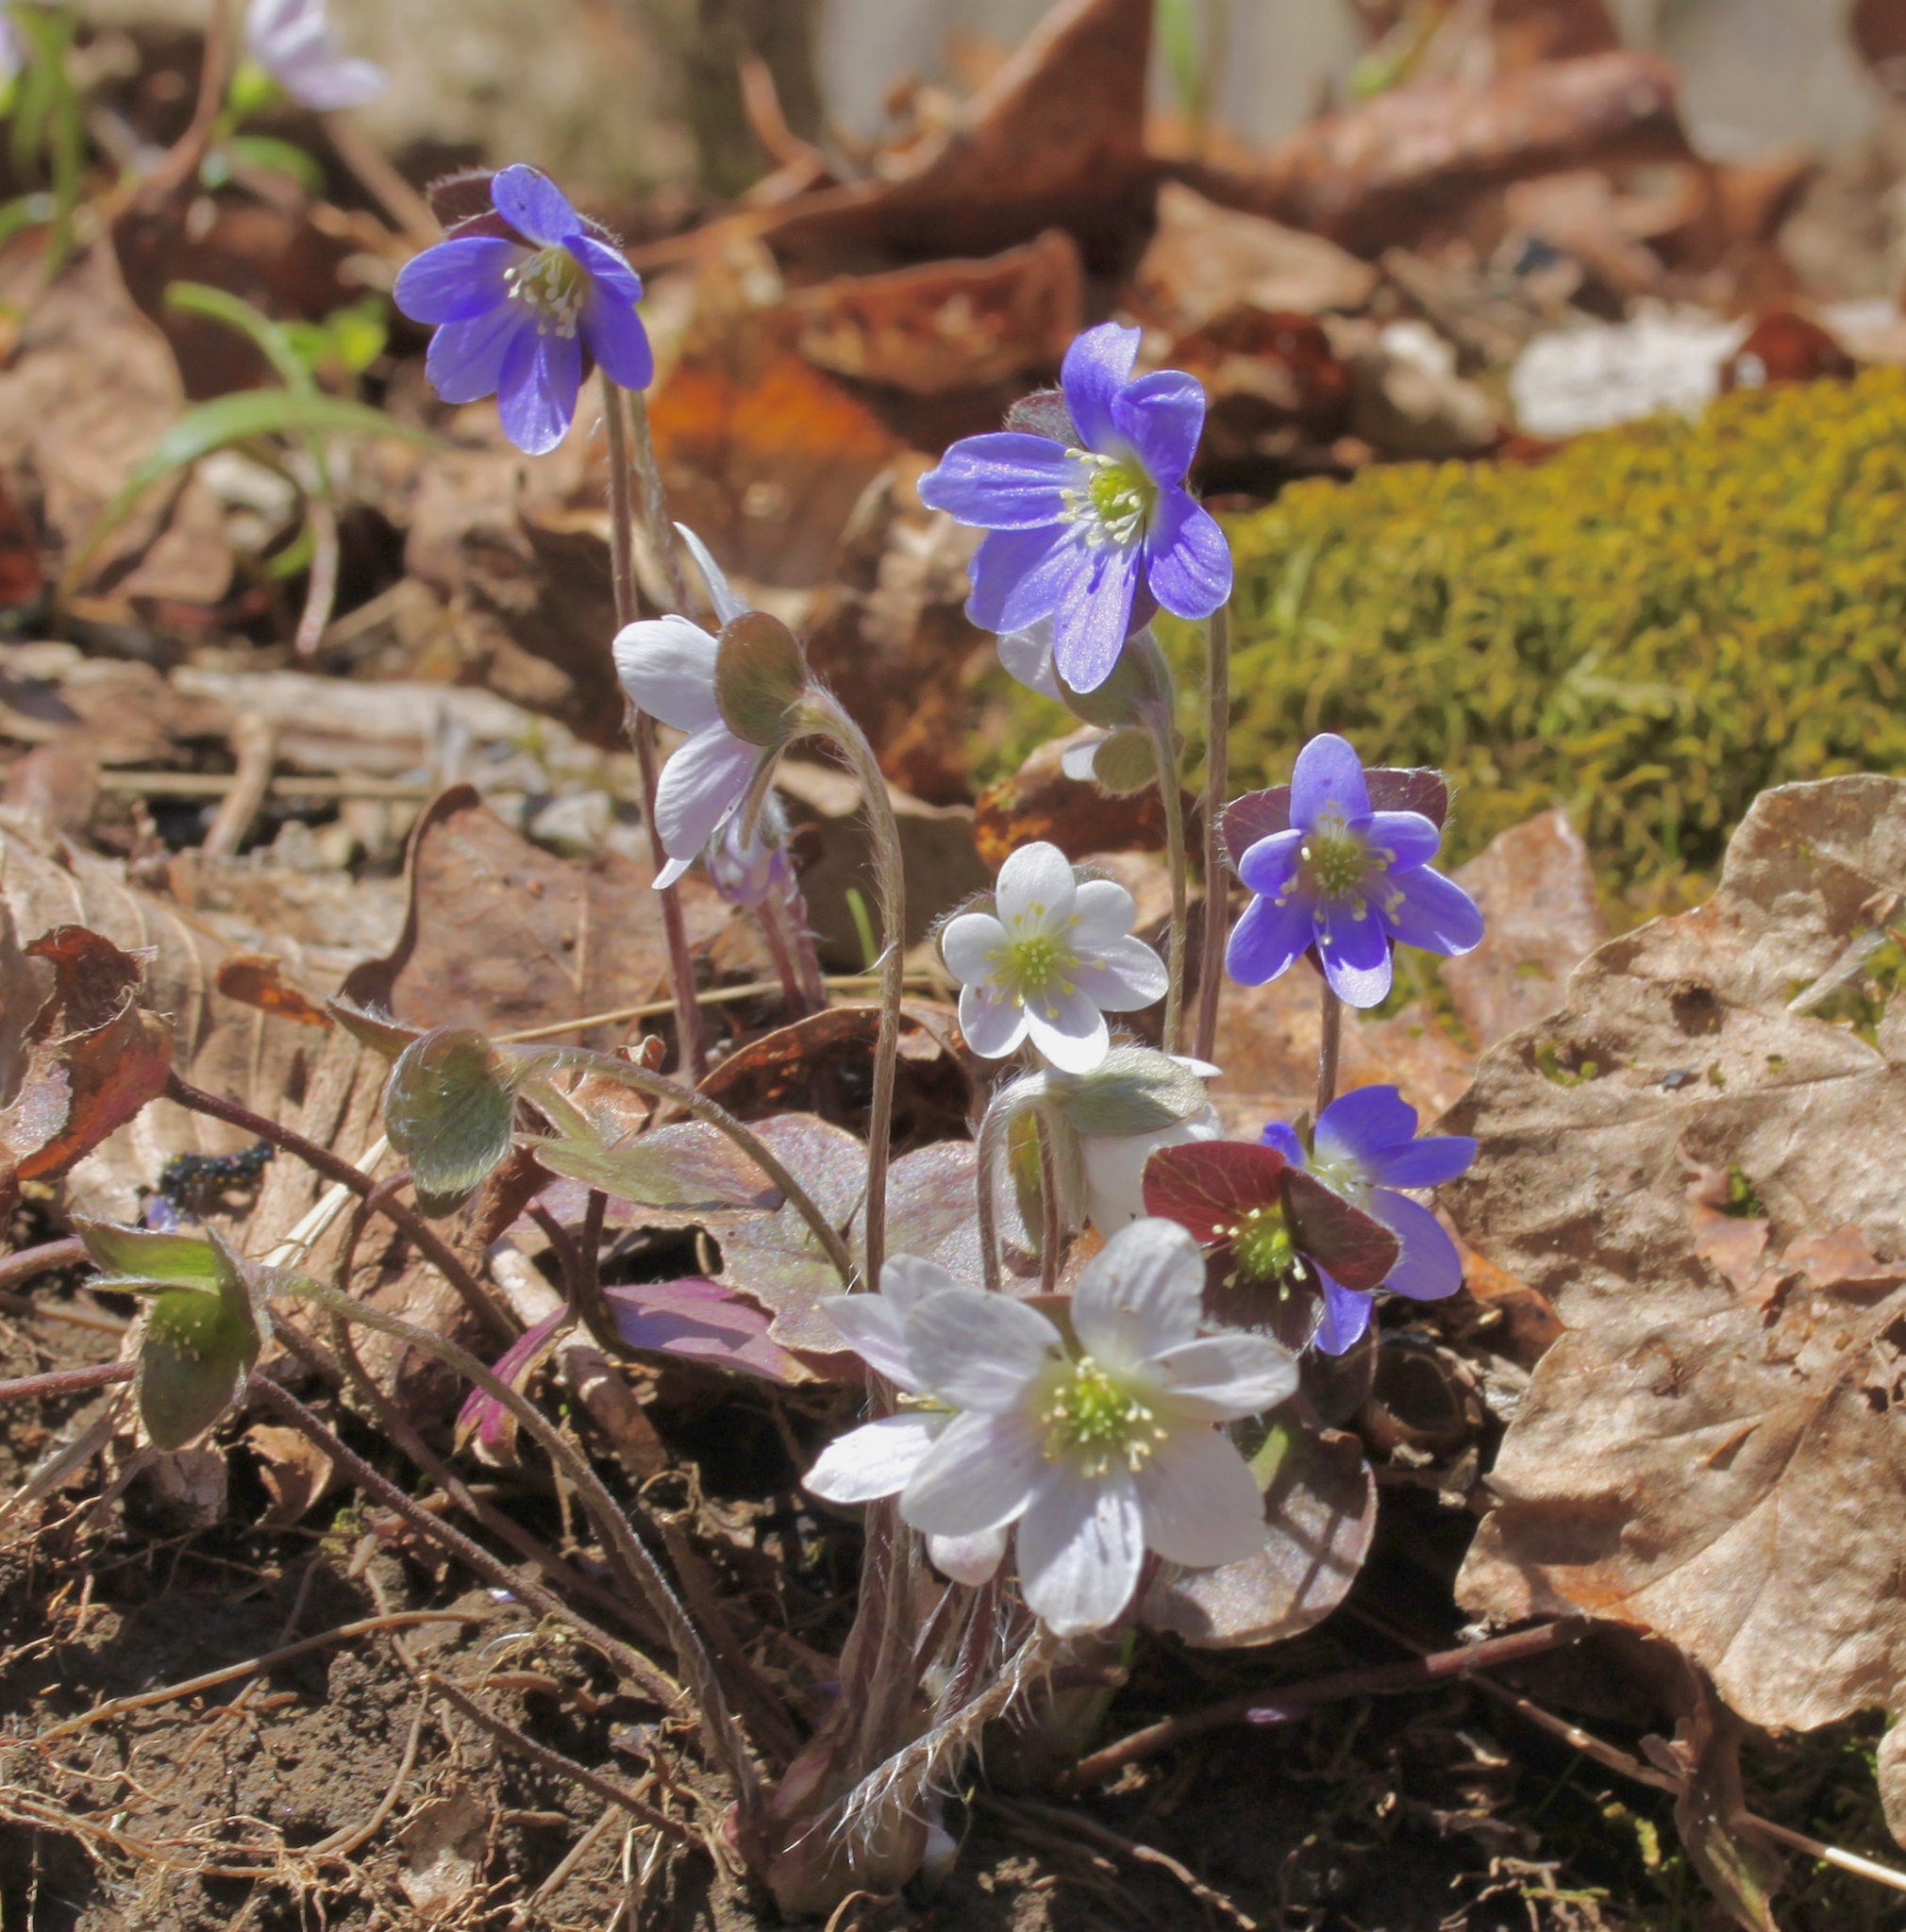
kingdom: Plantae
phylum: Tracheophyta
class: Magnoliopsida
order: Ranunculales
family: Ranunculaceae
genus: Hepatica
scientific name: Hepatica acutiloba
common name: Sharp-lobed hepatica
